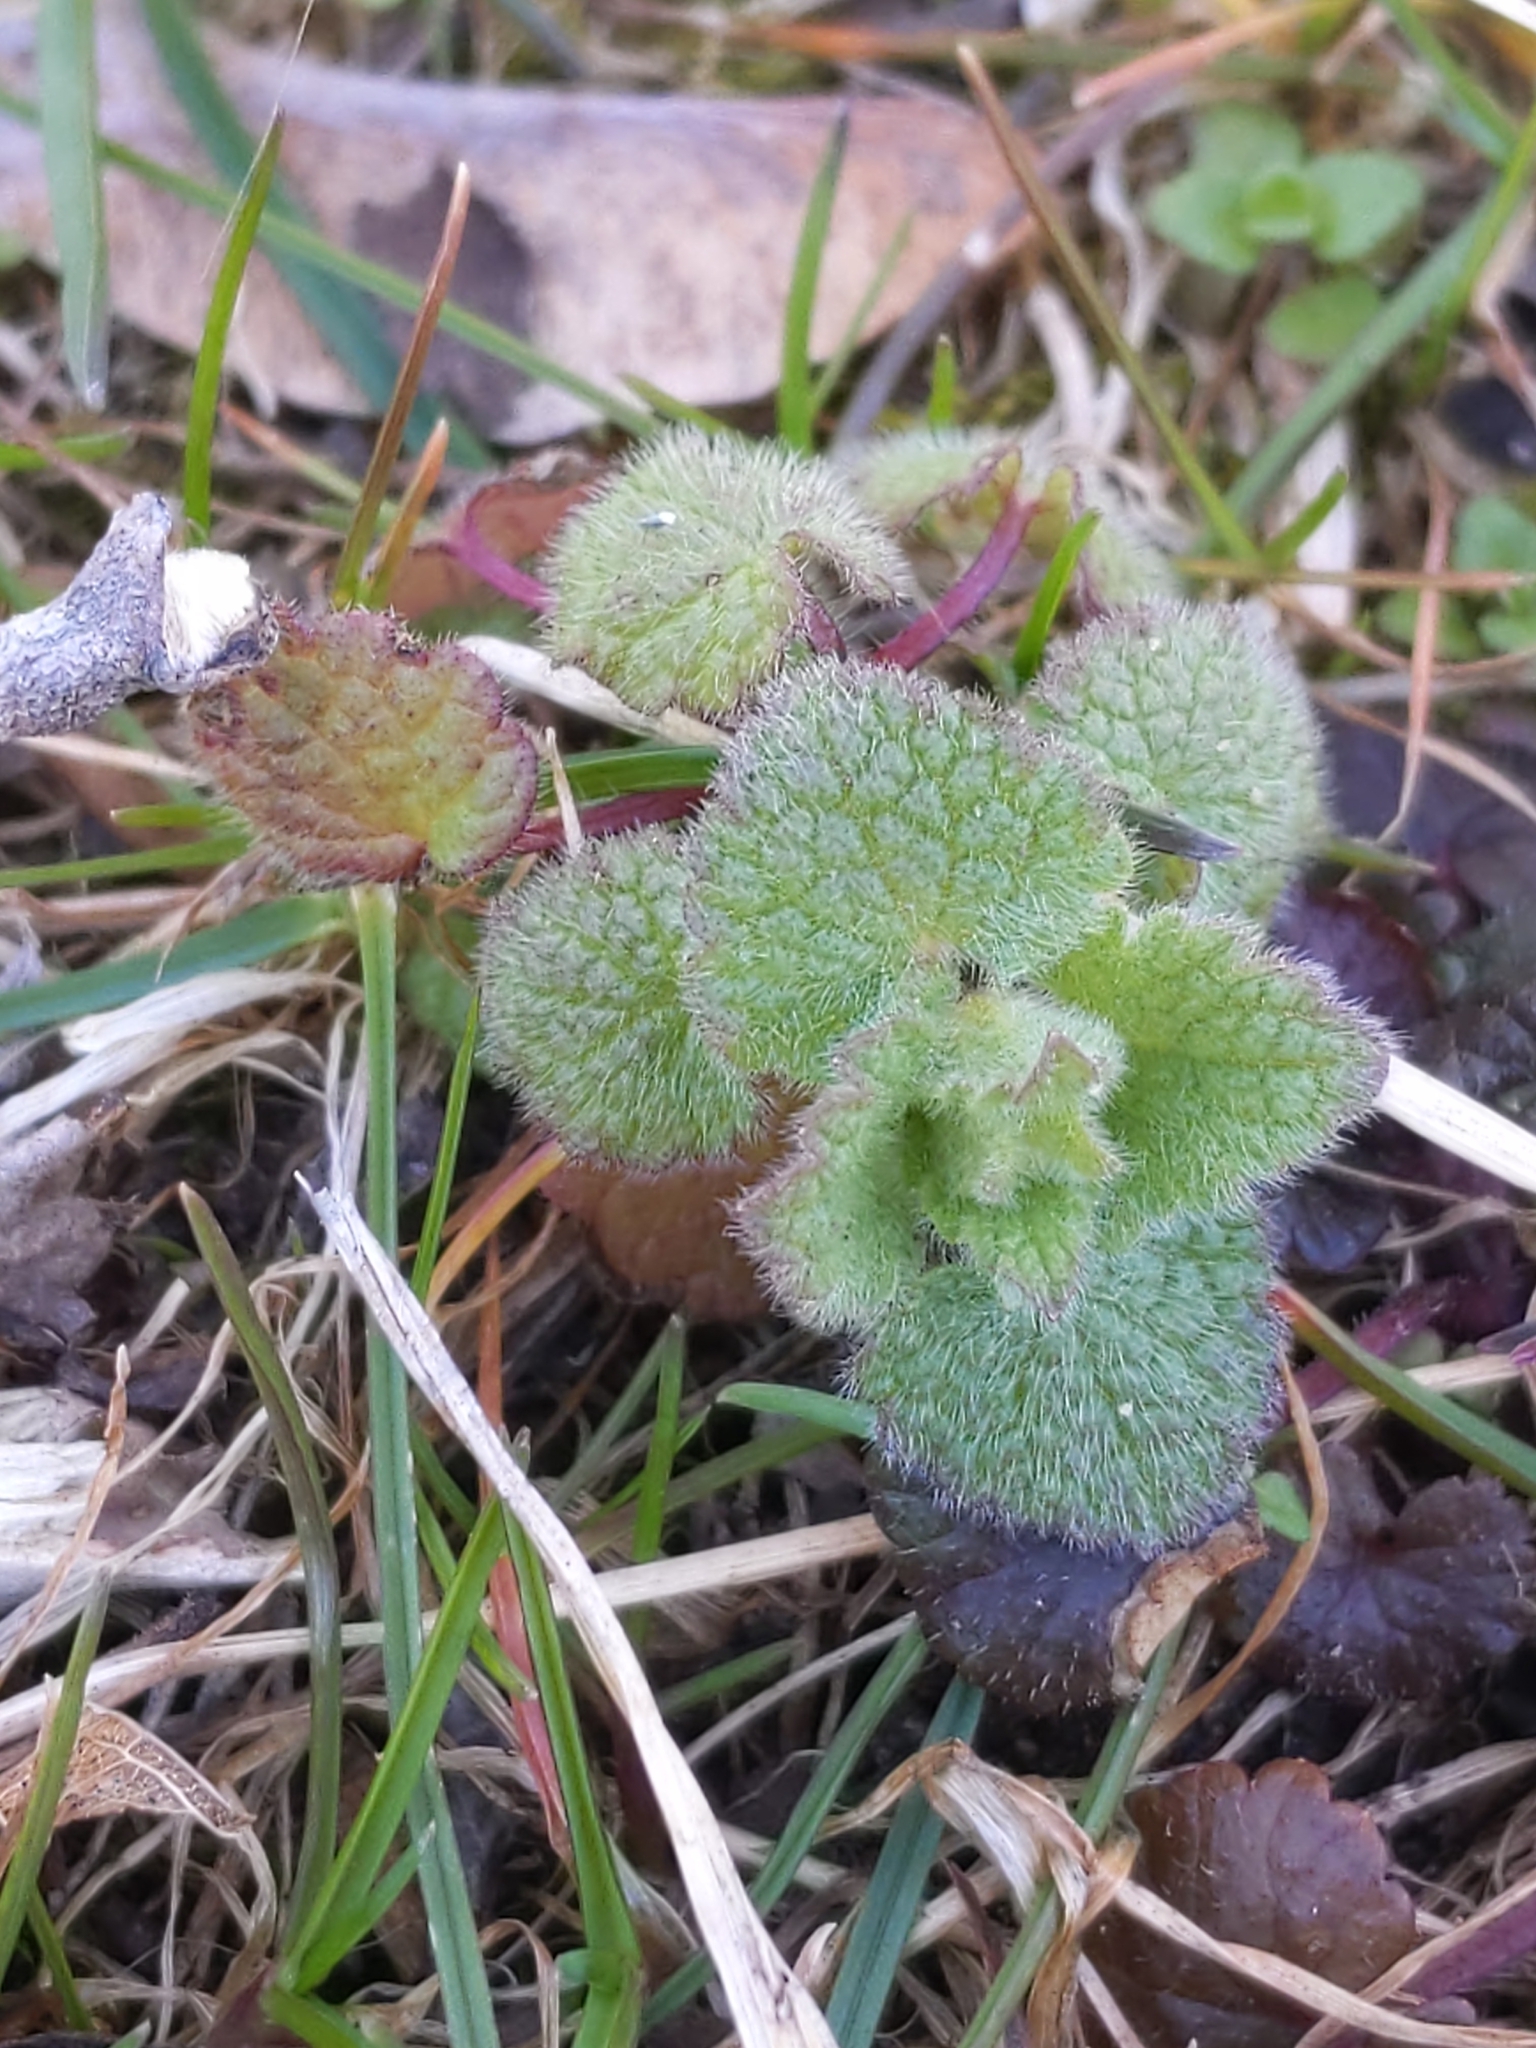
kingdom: Plantae
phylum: Tracheophyta
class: Magnoliopsida
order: Lamiales
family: Lamiaceae
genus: Lamium
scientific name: Lamium purpureum
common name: Red dead-nettle
